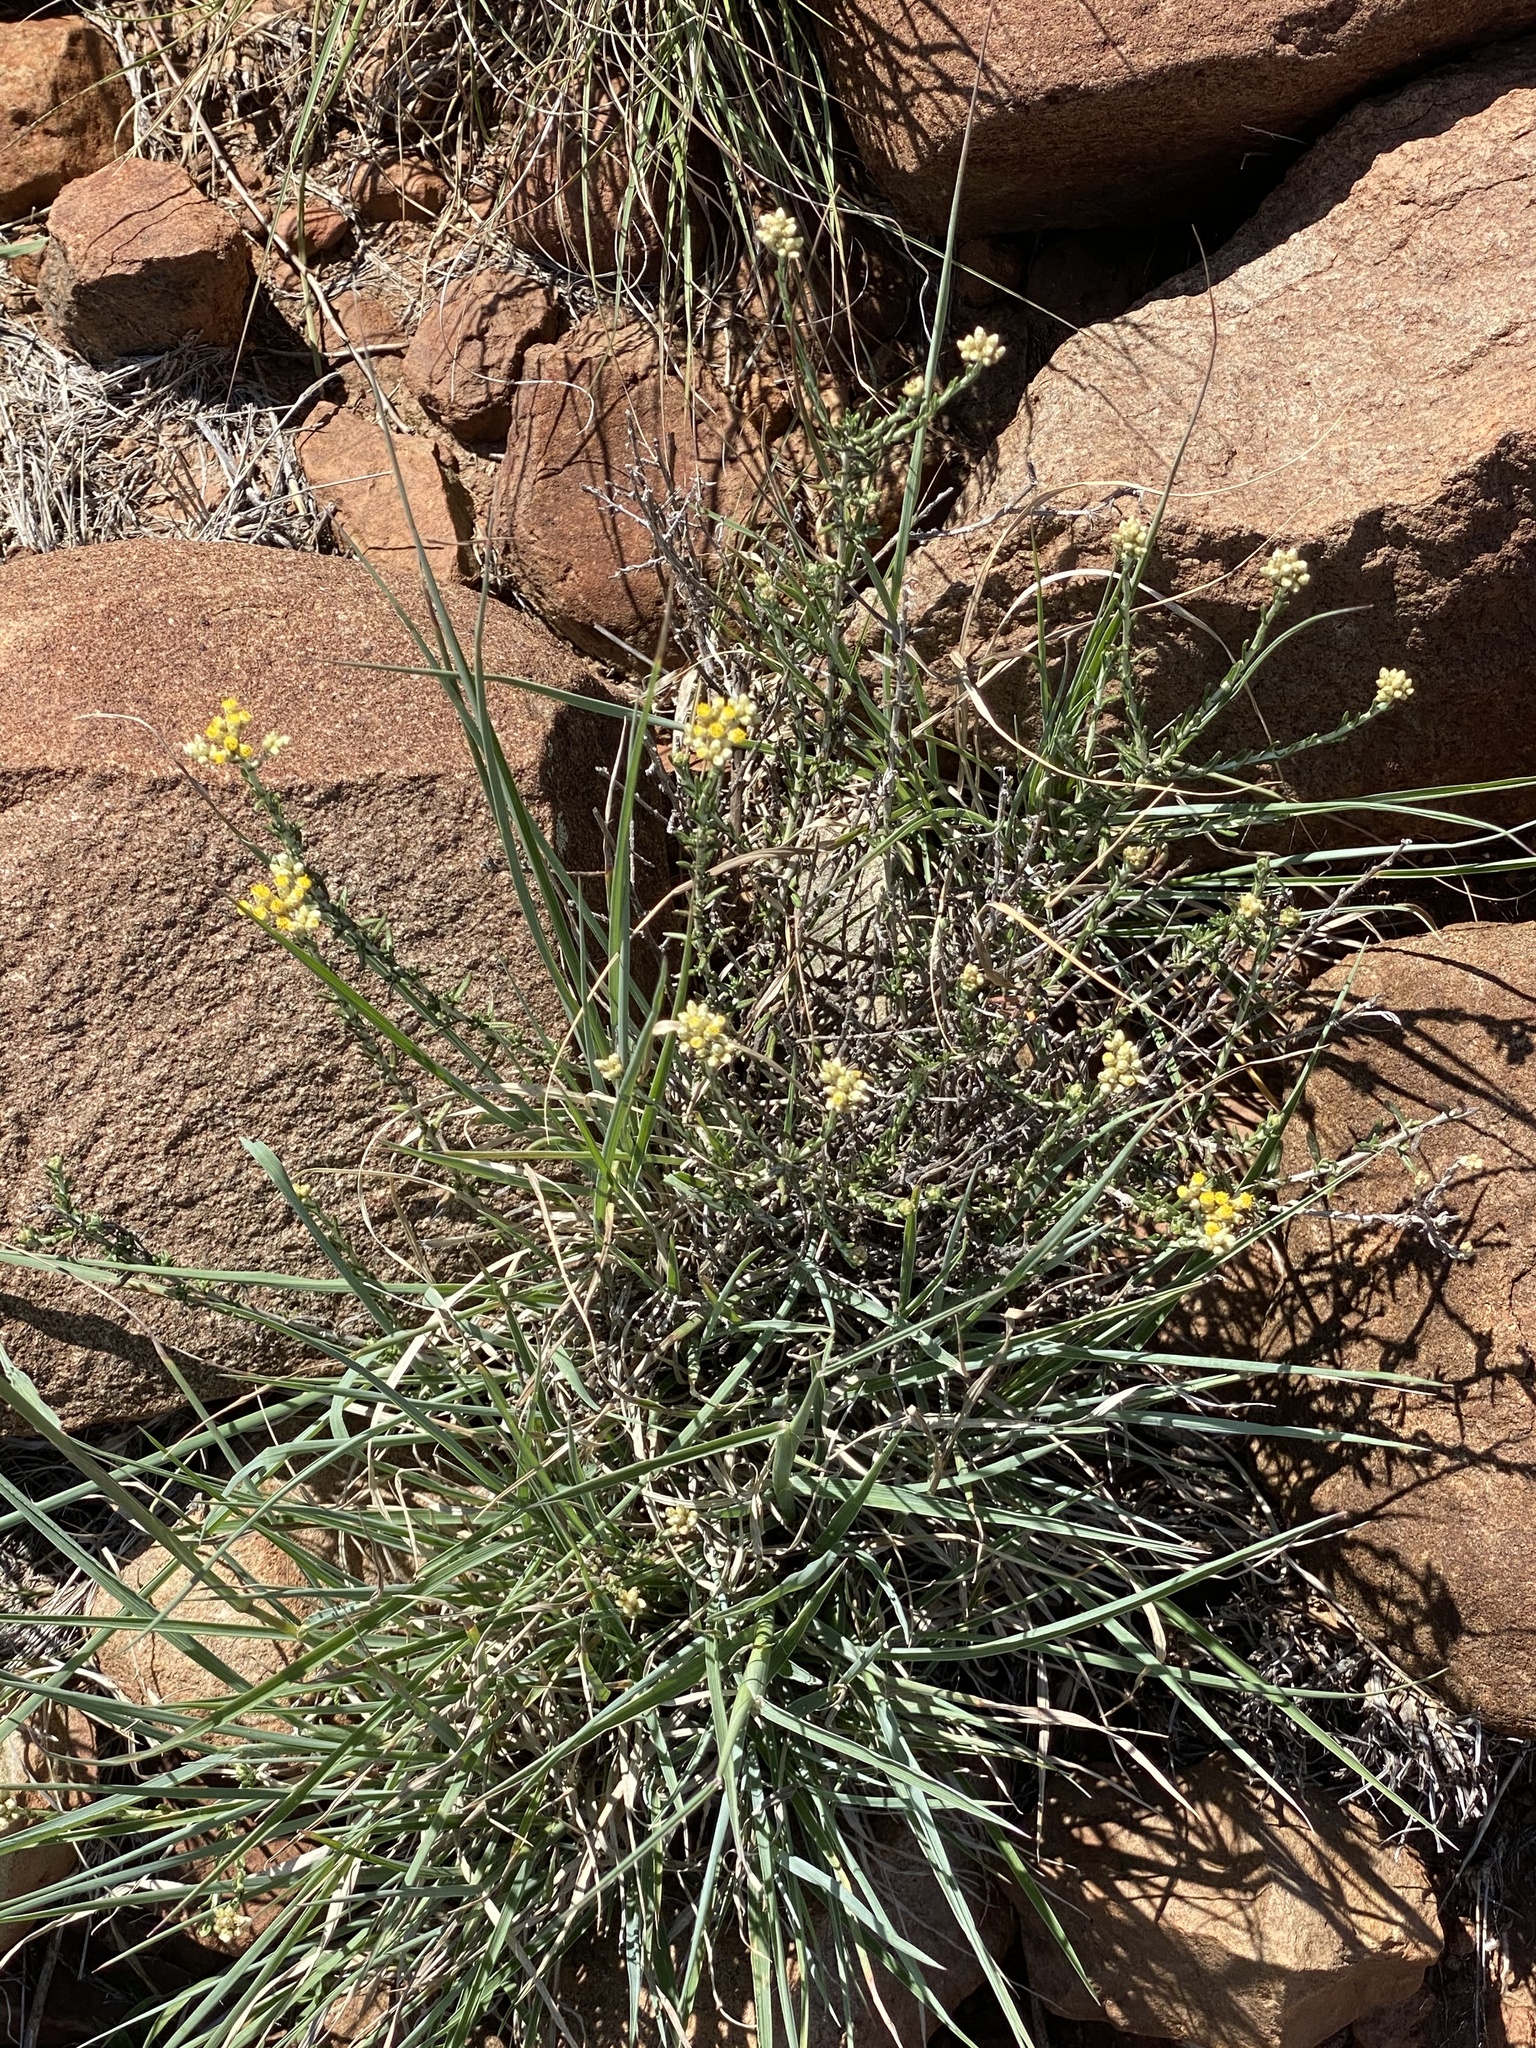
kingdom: Plantae
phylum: Tracheophyta
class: Magnoliopsida
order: Asterales
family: Asteraceae
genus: Helichrysum
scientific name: Helichrysum rosum
